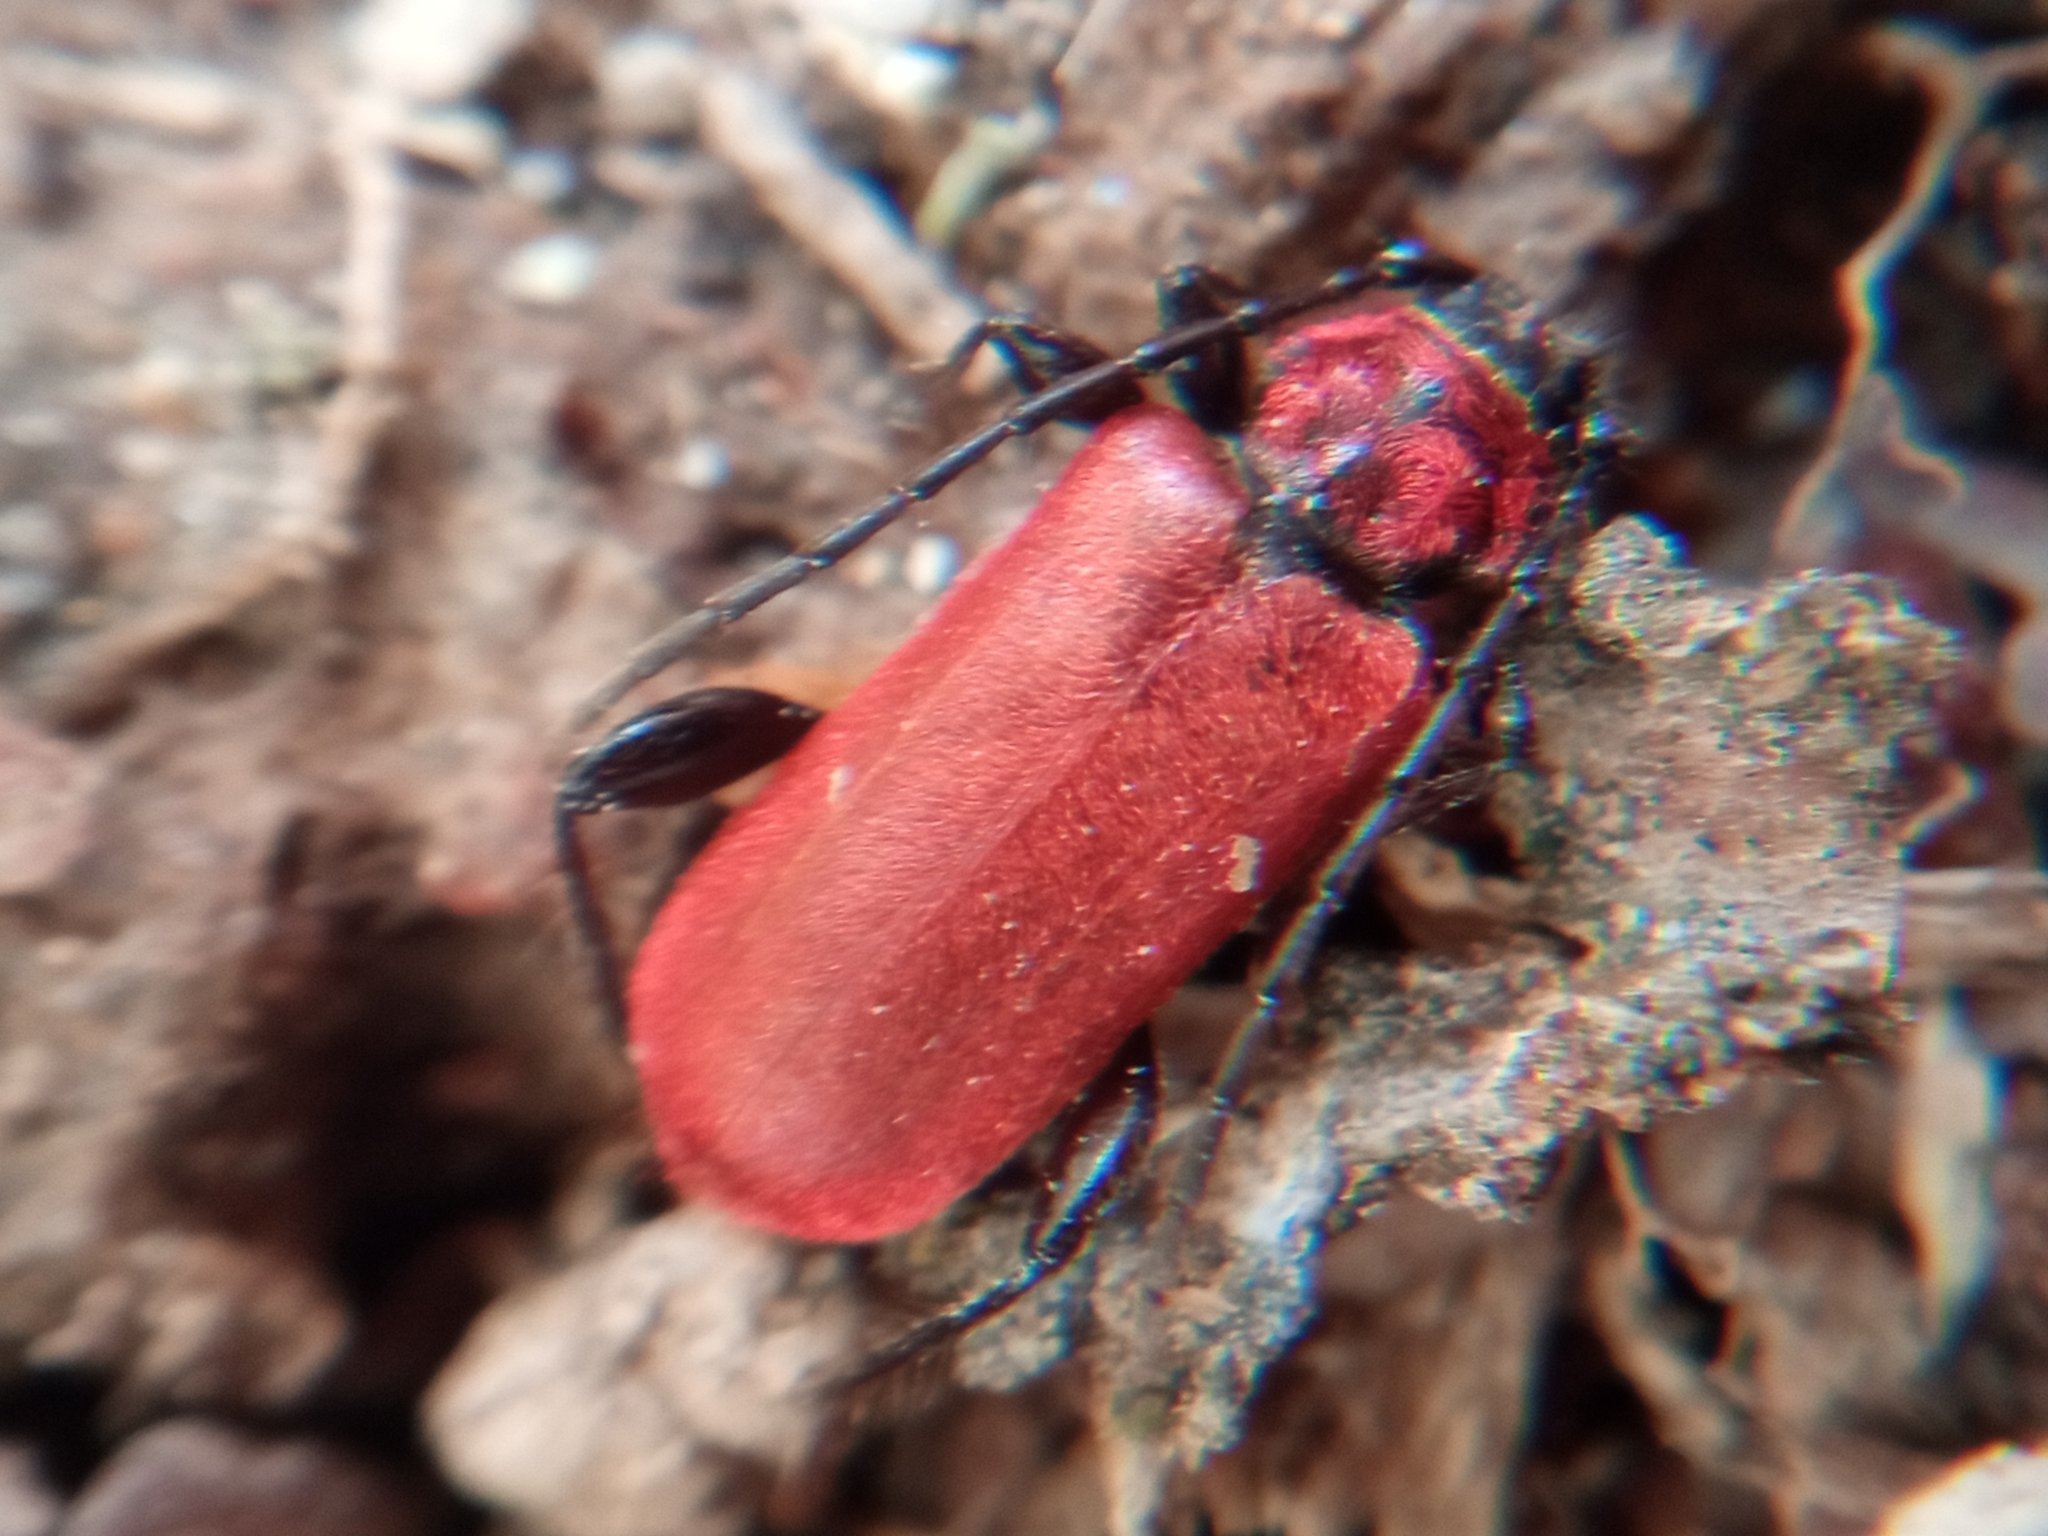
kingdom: Animalia
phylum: Arthropoda
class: Insecta
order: Coleoptera
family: Cerambycidae
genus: Pyrrhidium
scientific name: Pyrrhidium sanguineum
